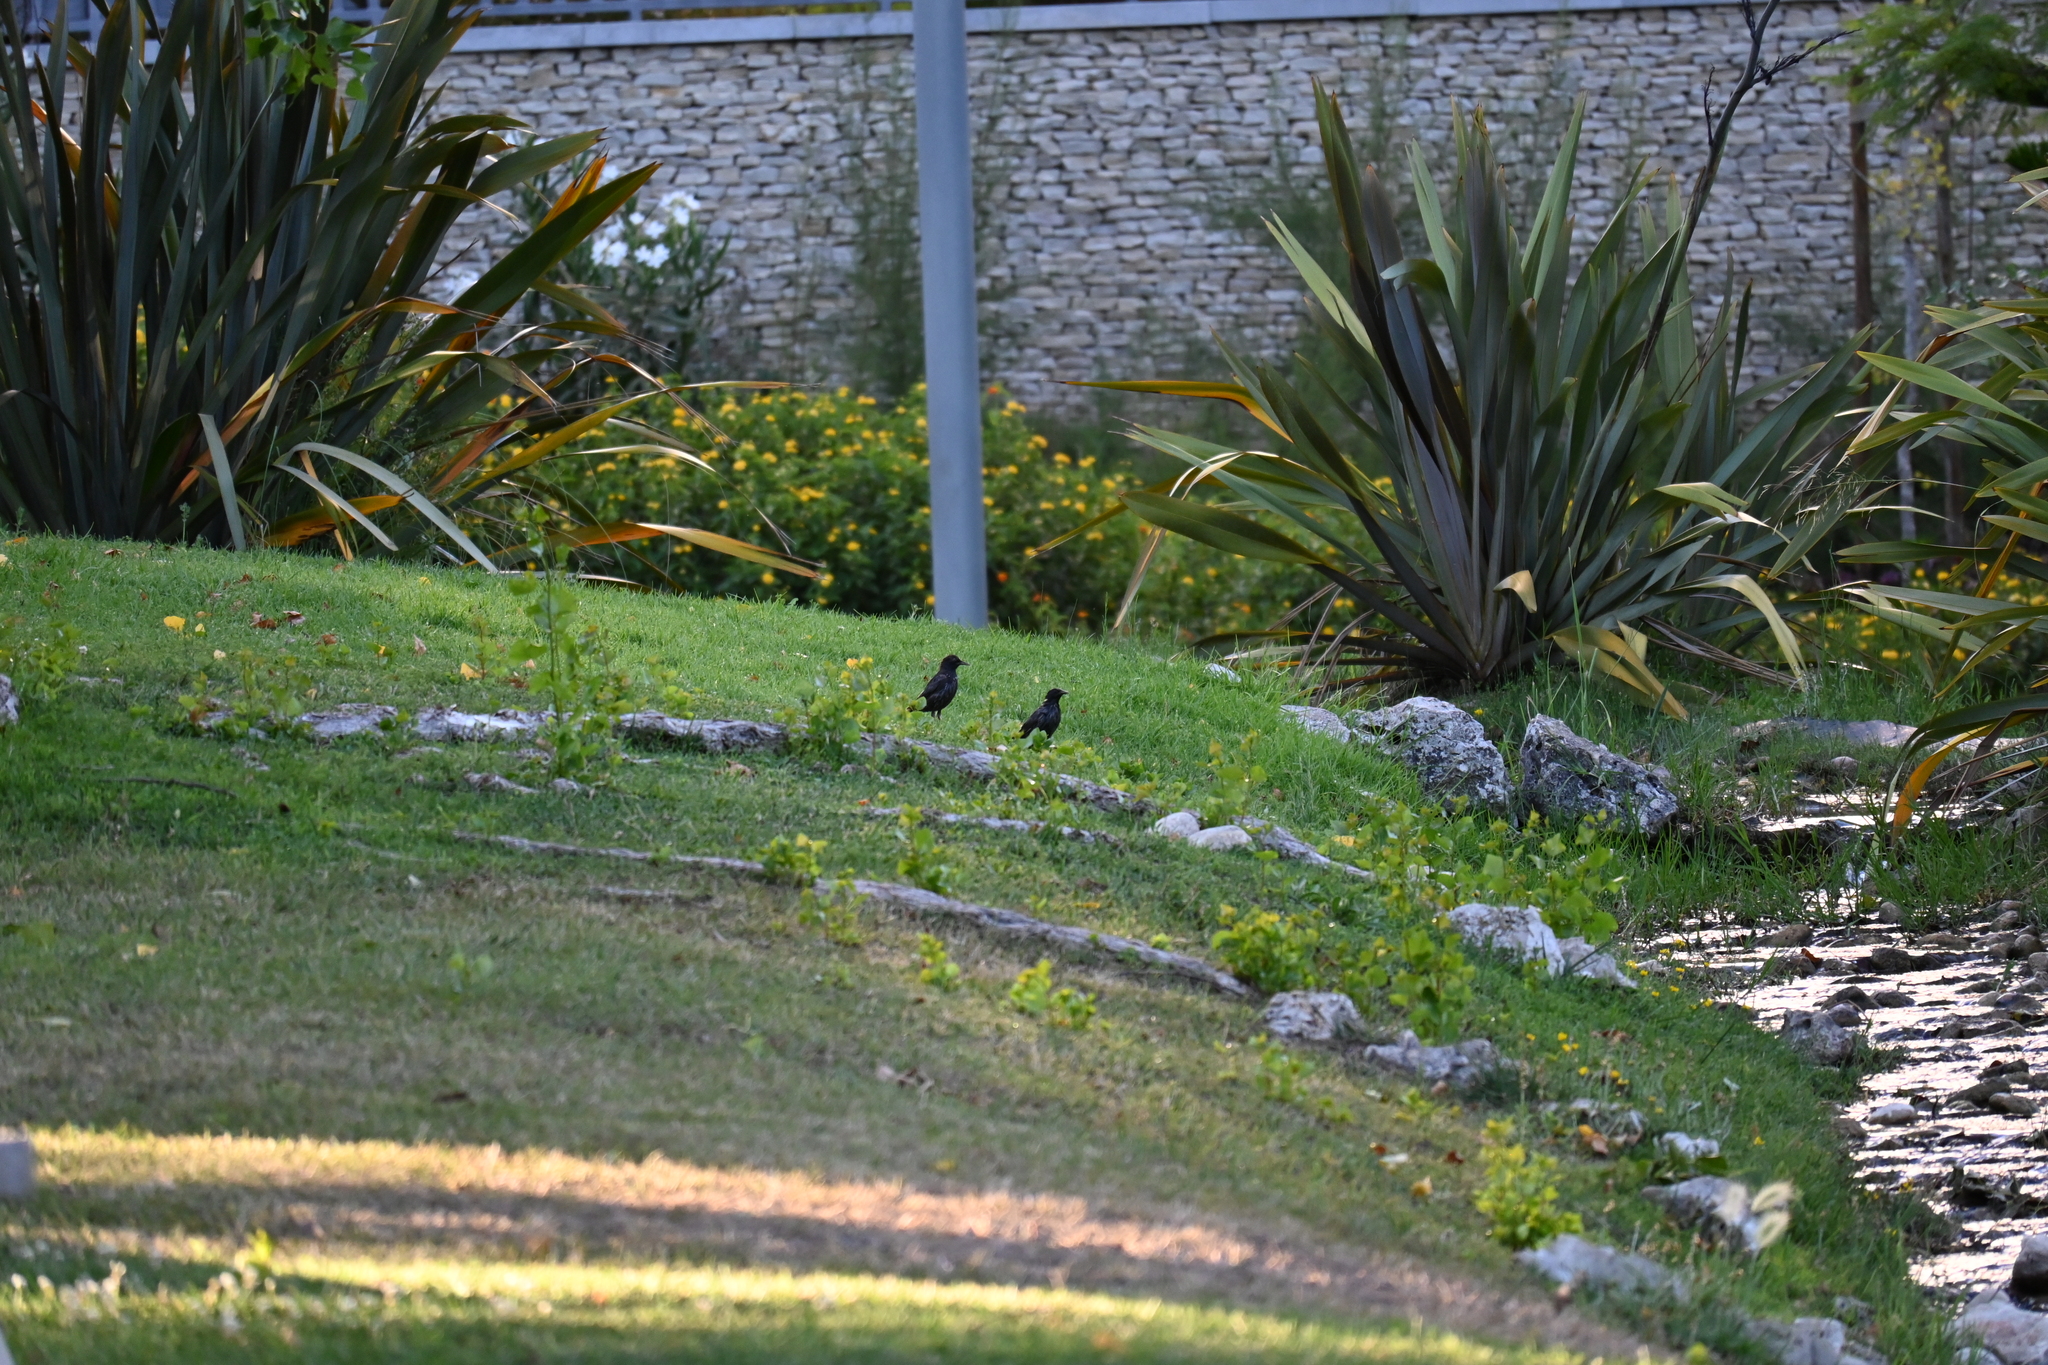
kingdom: Animalia
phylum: Chordata
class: Aves
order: Passeriformes
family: Sturnidae
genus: Sturnus
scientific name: Sturnus unicolor
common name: Spotless starling
